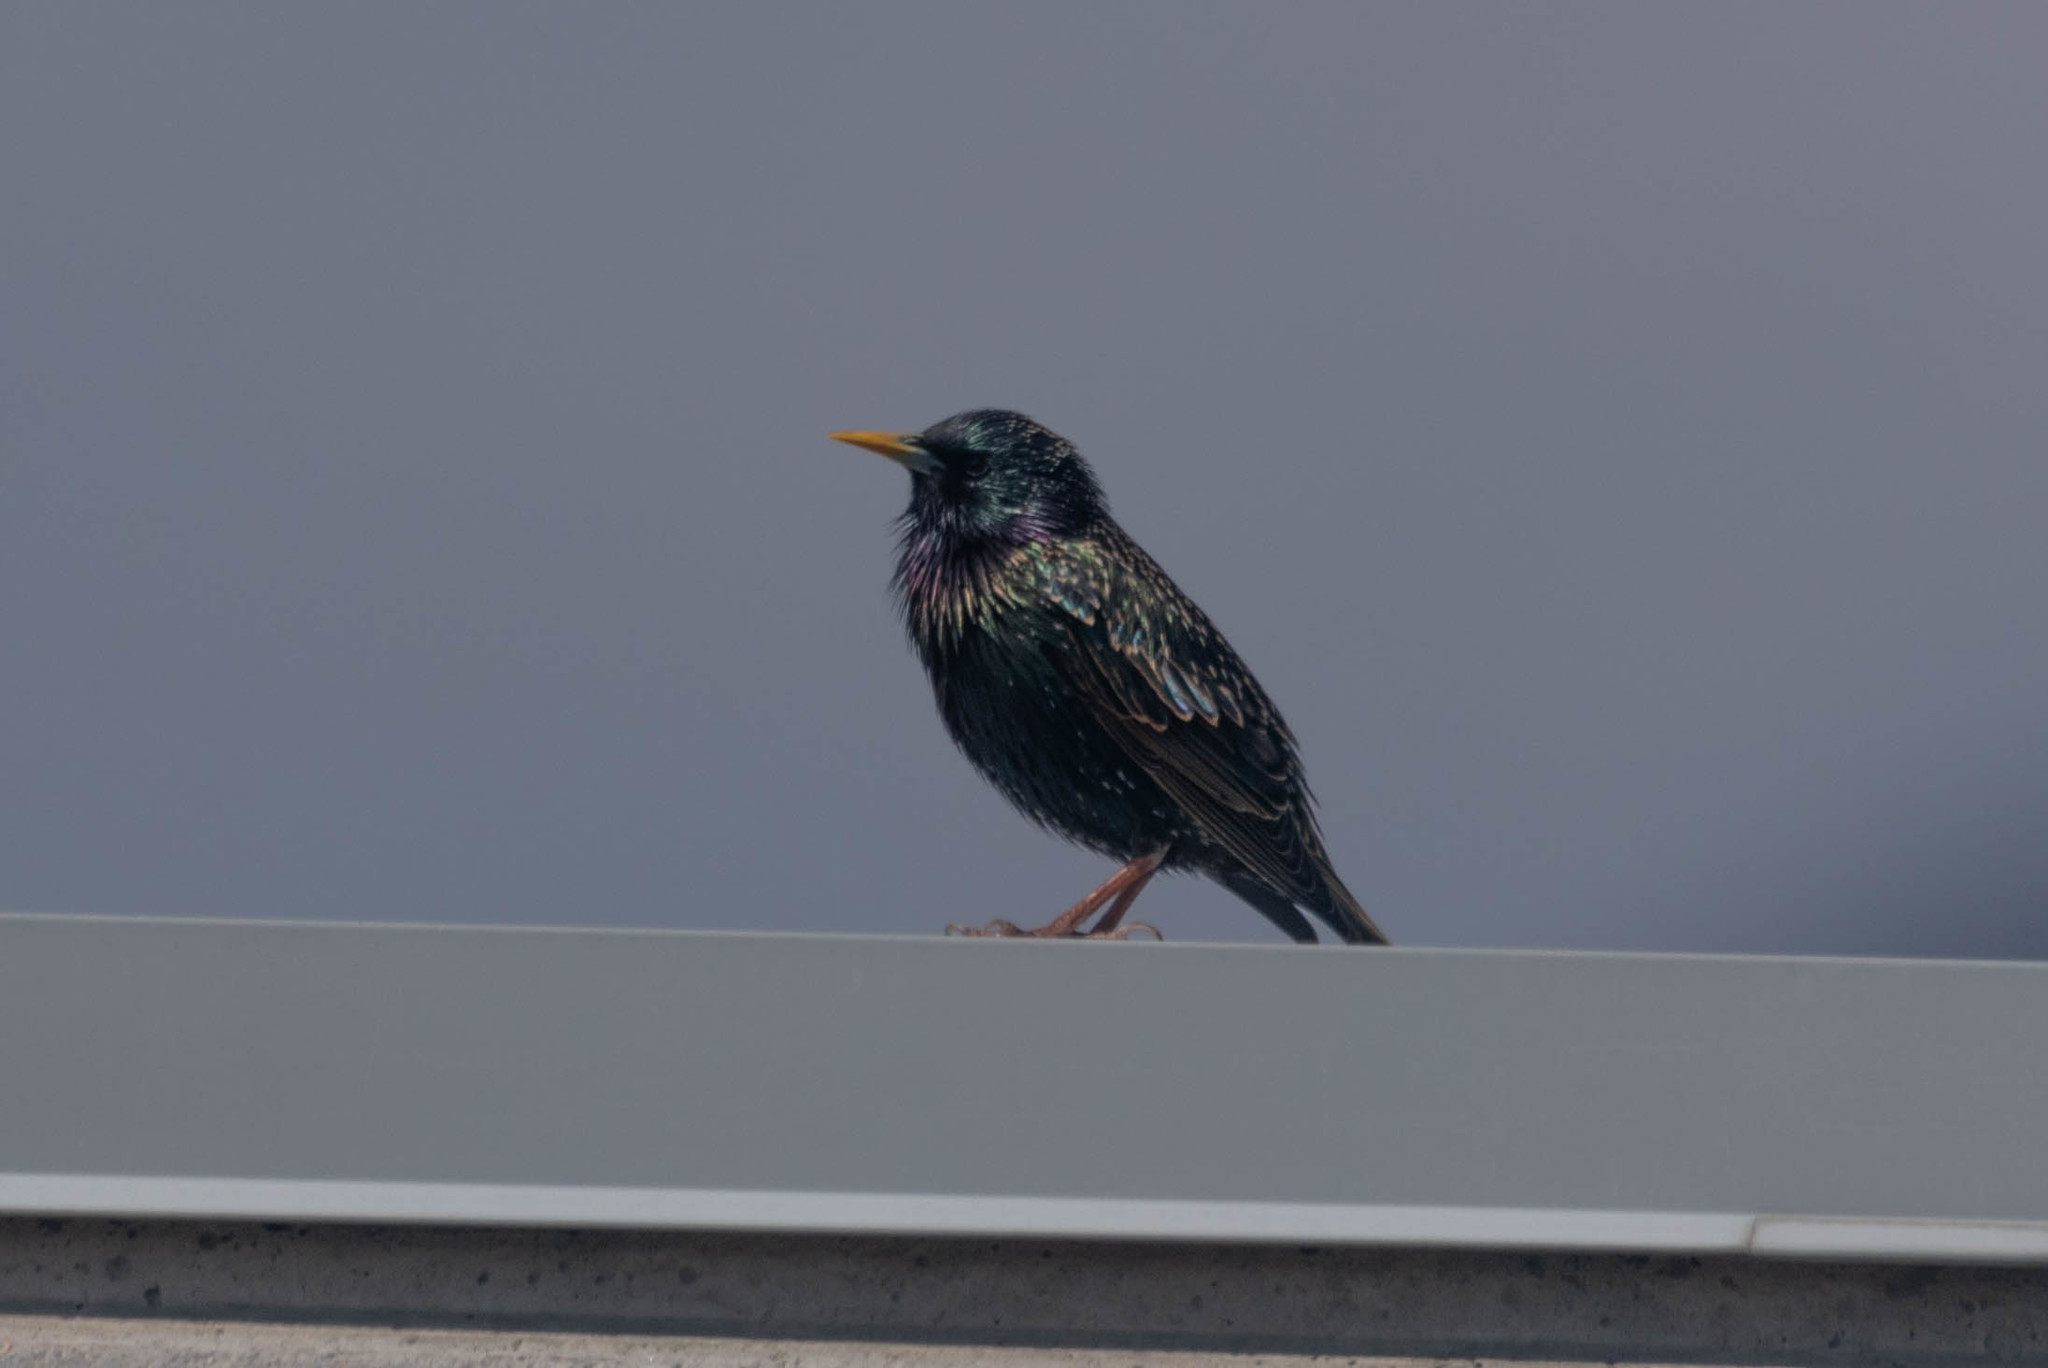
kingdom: Animalia
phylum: Chordata
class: Aves
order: Passeriformes
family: Sturnidae
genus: Sturnus
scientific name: Sturnus vulgaris
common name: Common starling
